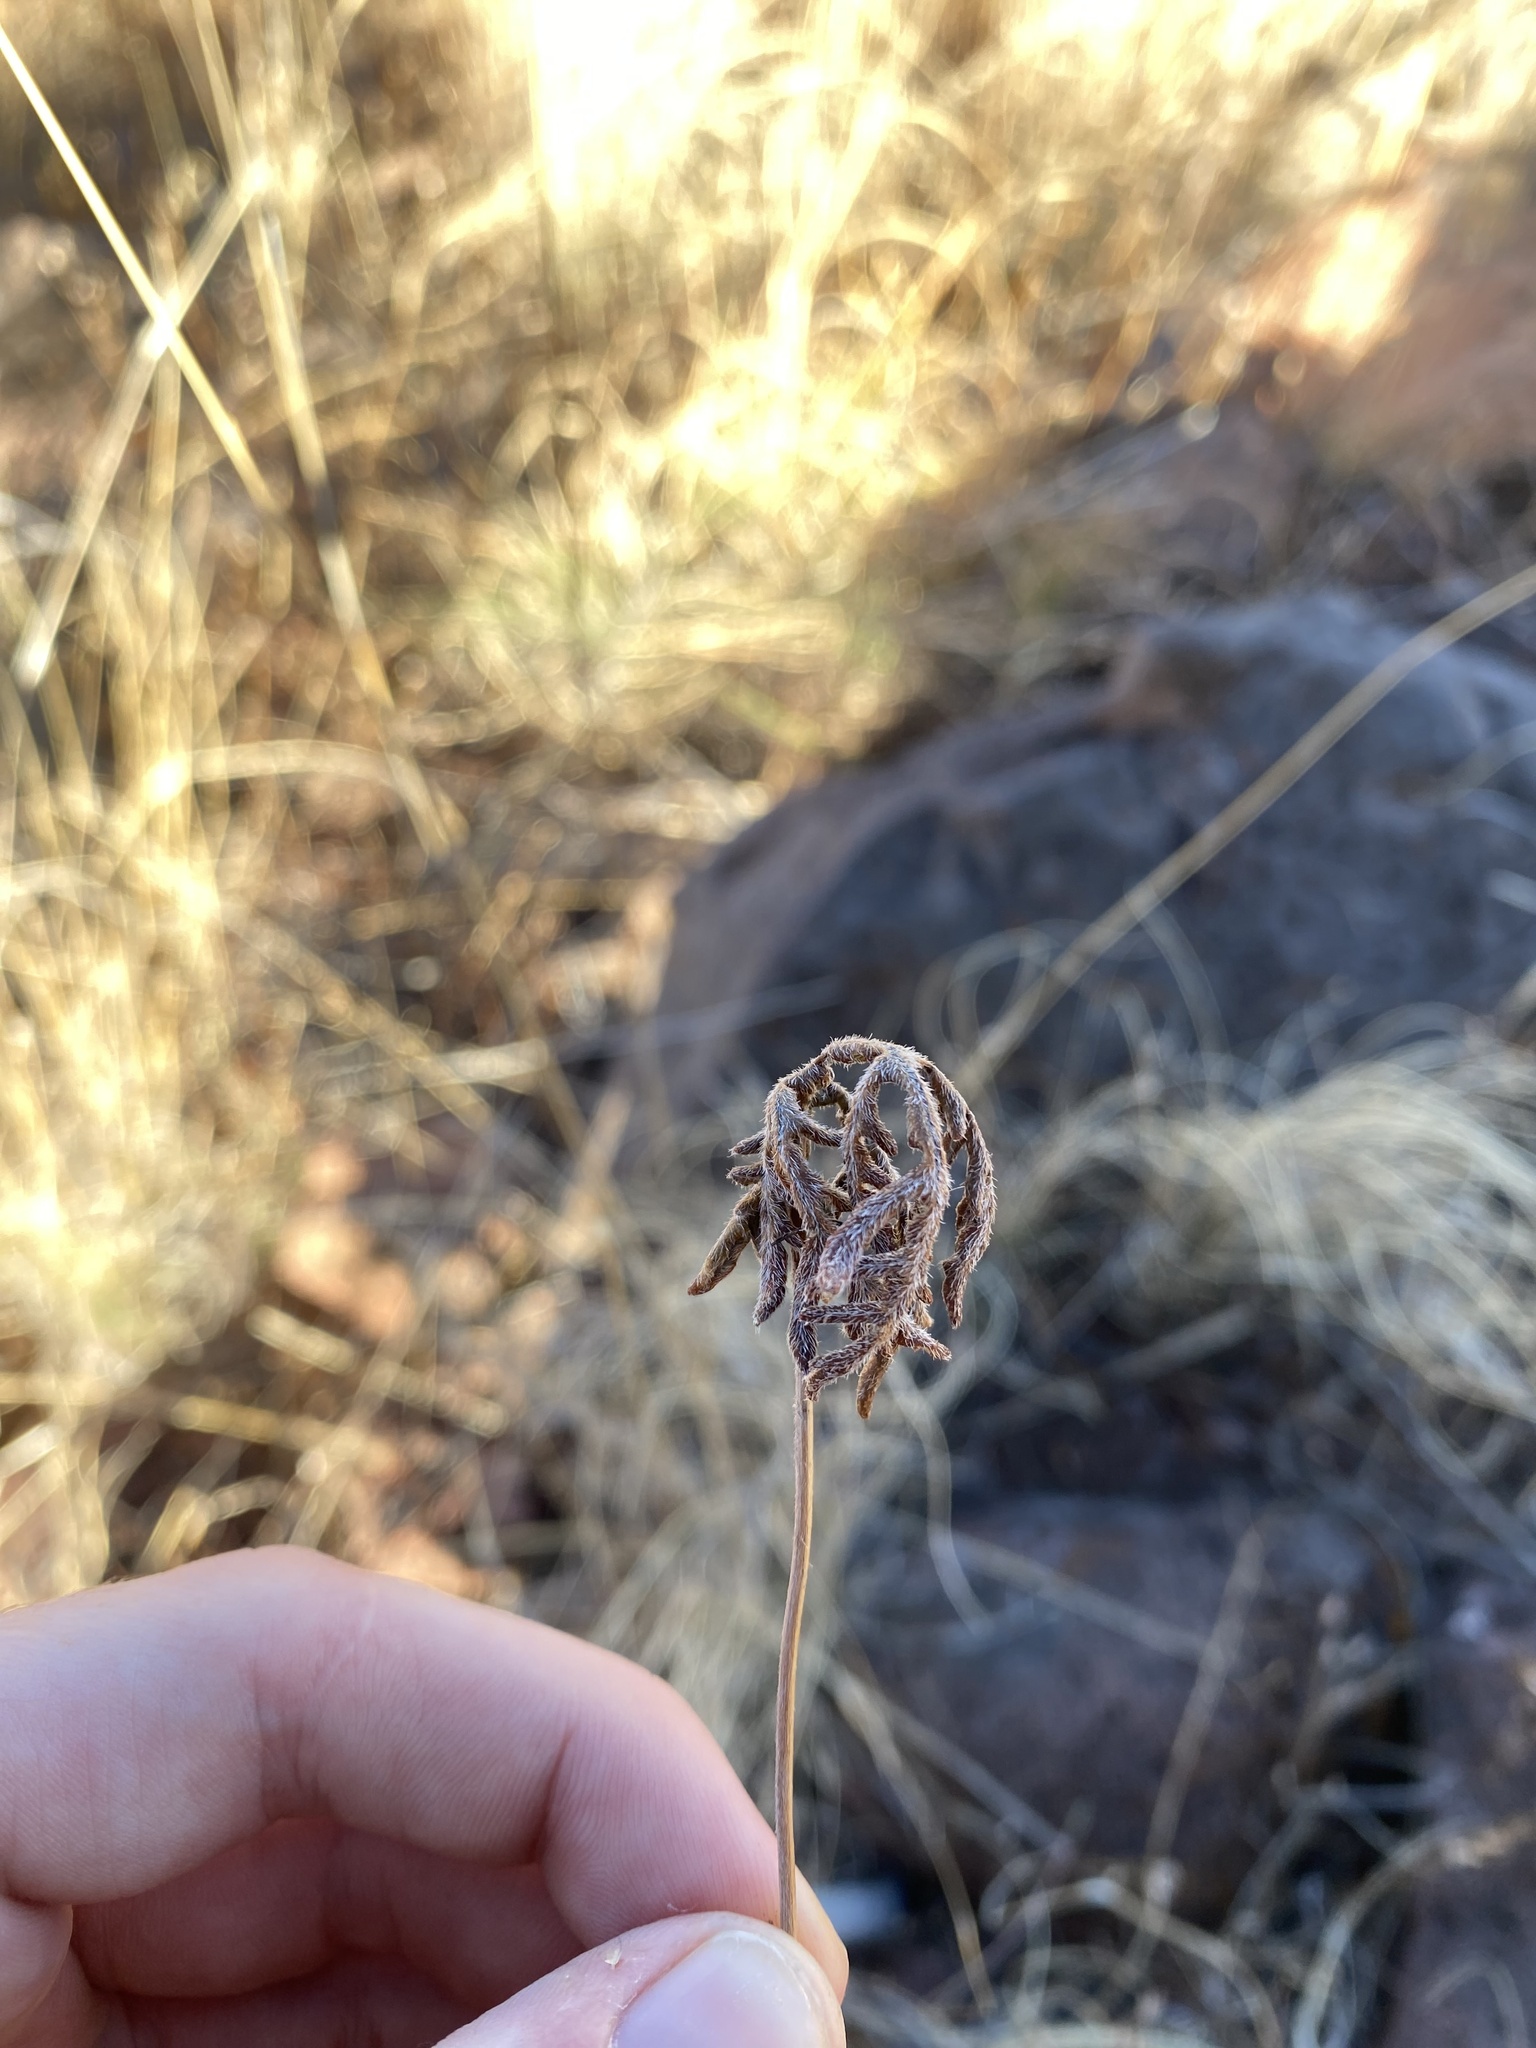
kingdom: Plantae
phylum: Tracheophyta
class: Polypodiopsida
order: Polypodiales
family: Pteridaceae
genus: Bommeria
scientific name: Bommeria hispida
